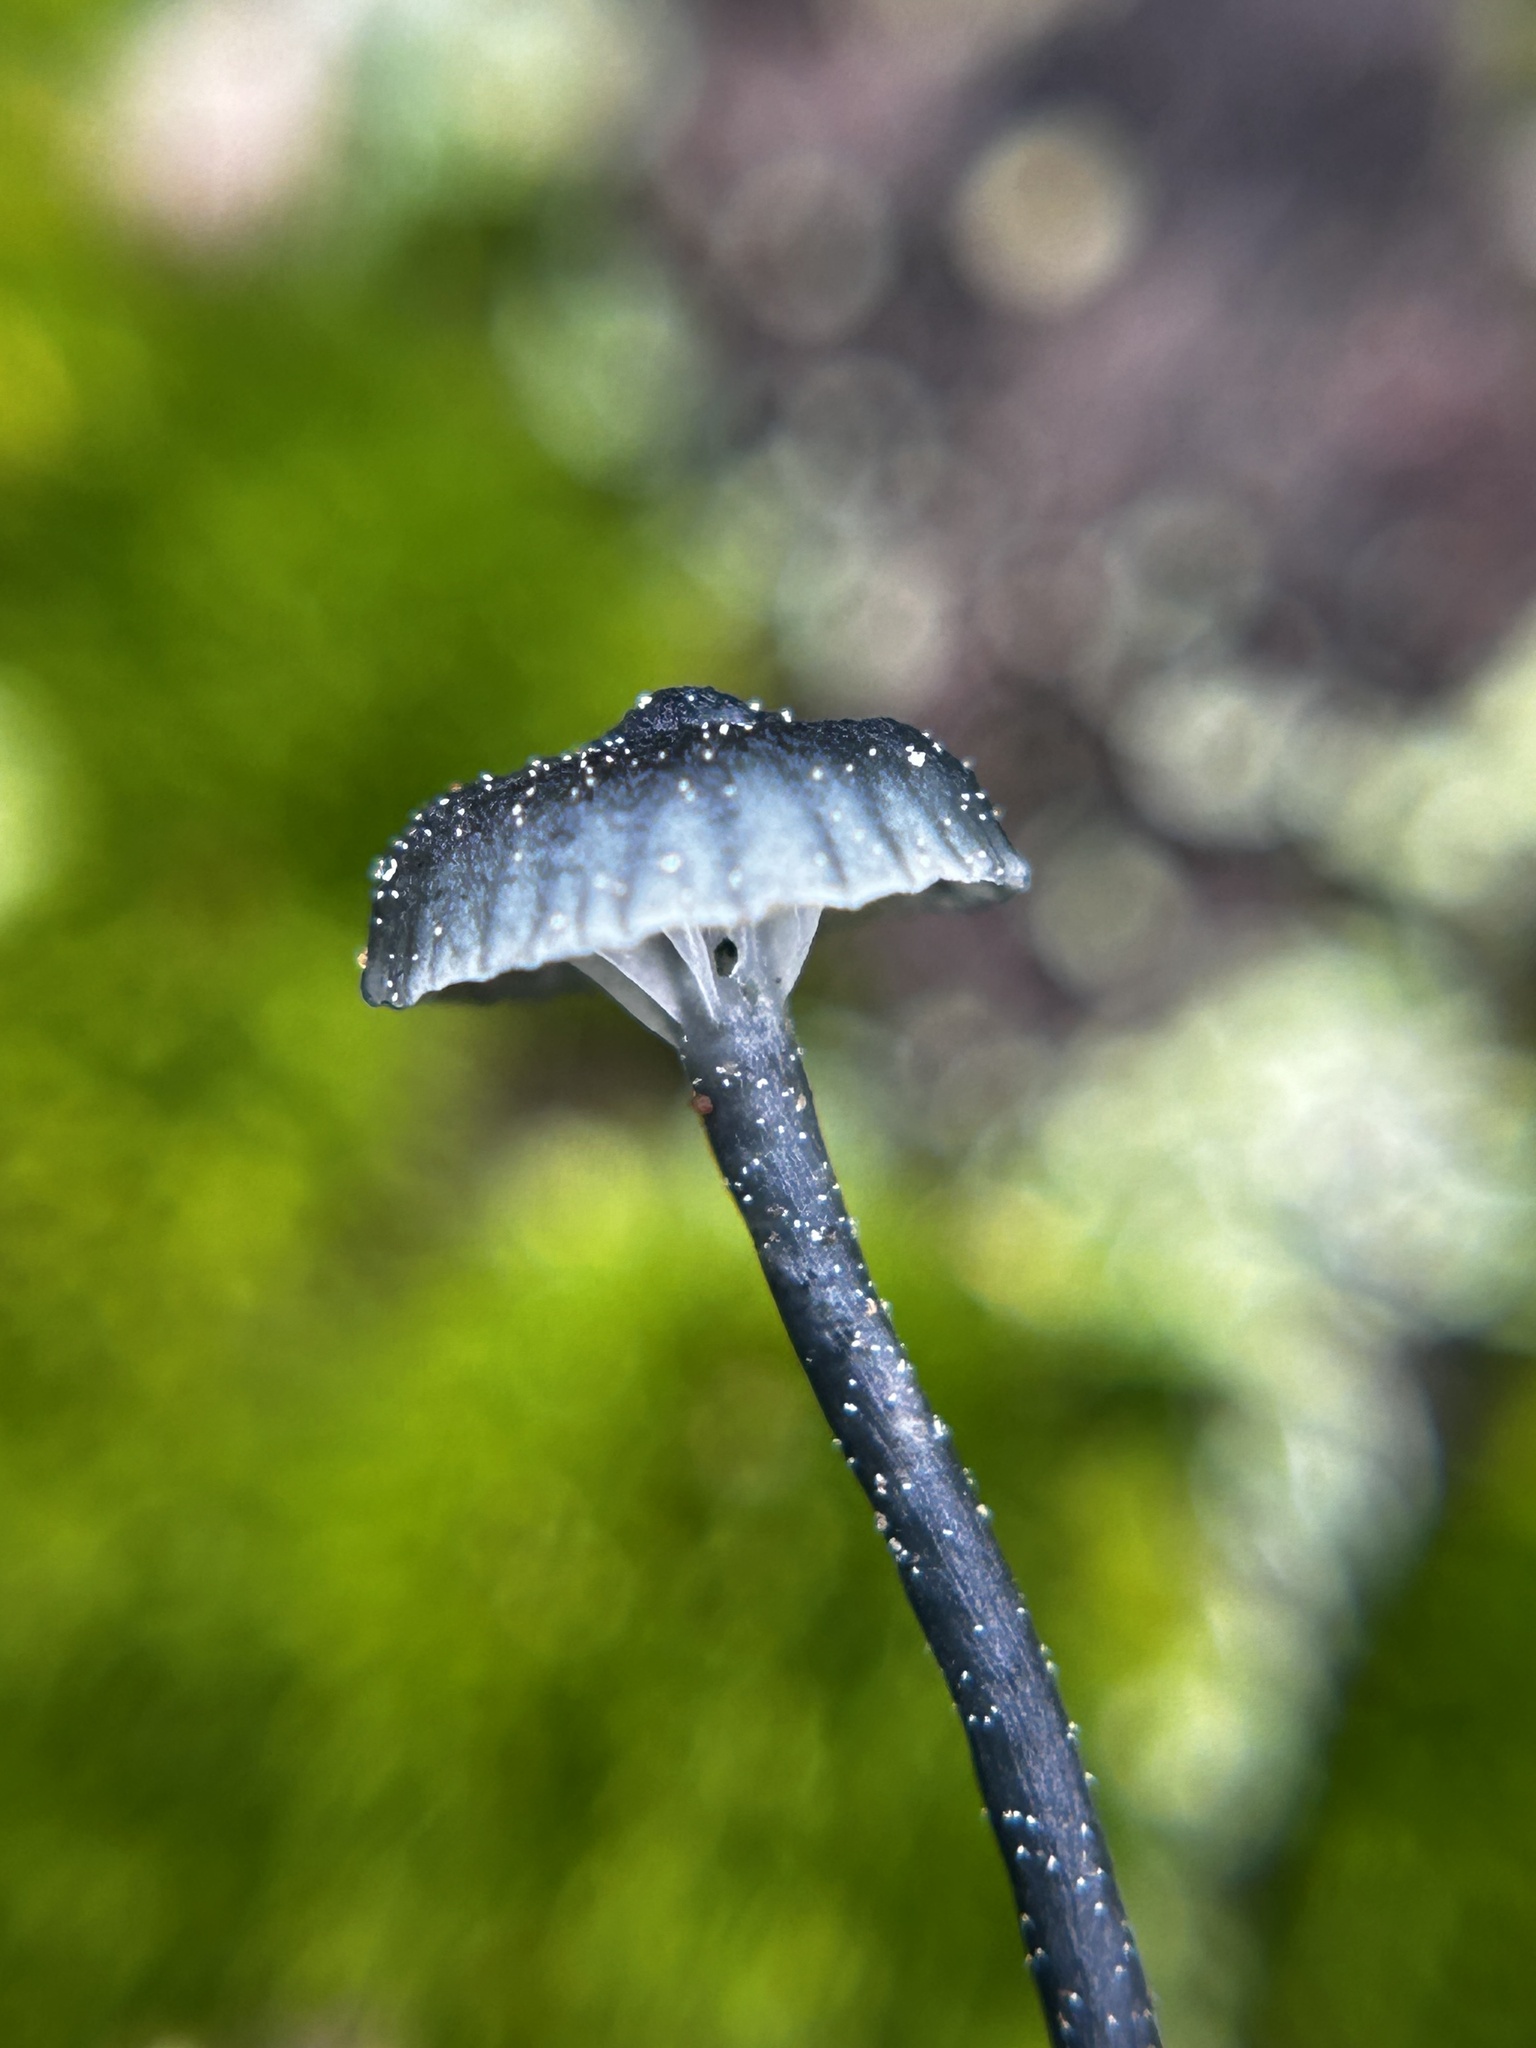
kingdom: Fungi
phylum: Basidiomycota
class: Agaricomycetes
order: Agaricales
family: Hygrophoraceae
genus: Arrhenia
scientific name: Arrhenia chlorocyanea
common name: Verdigris navel
